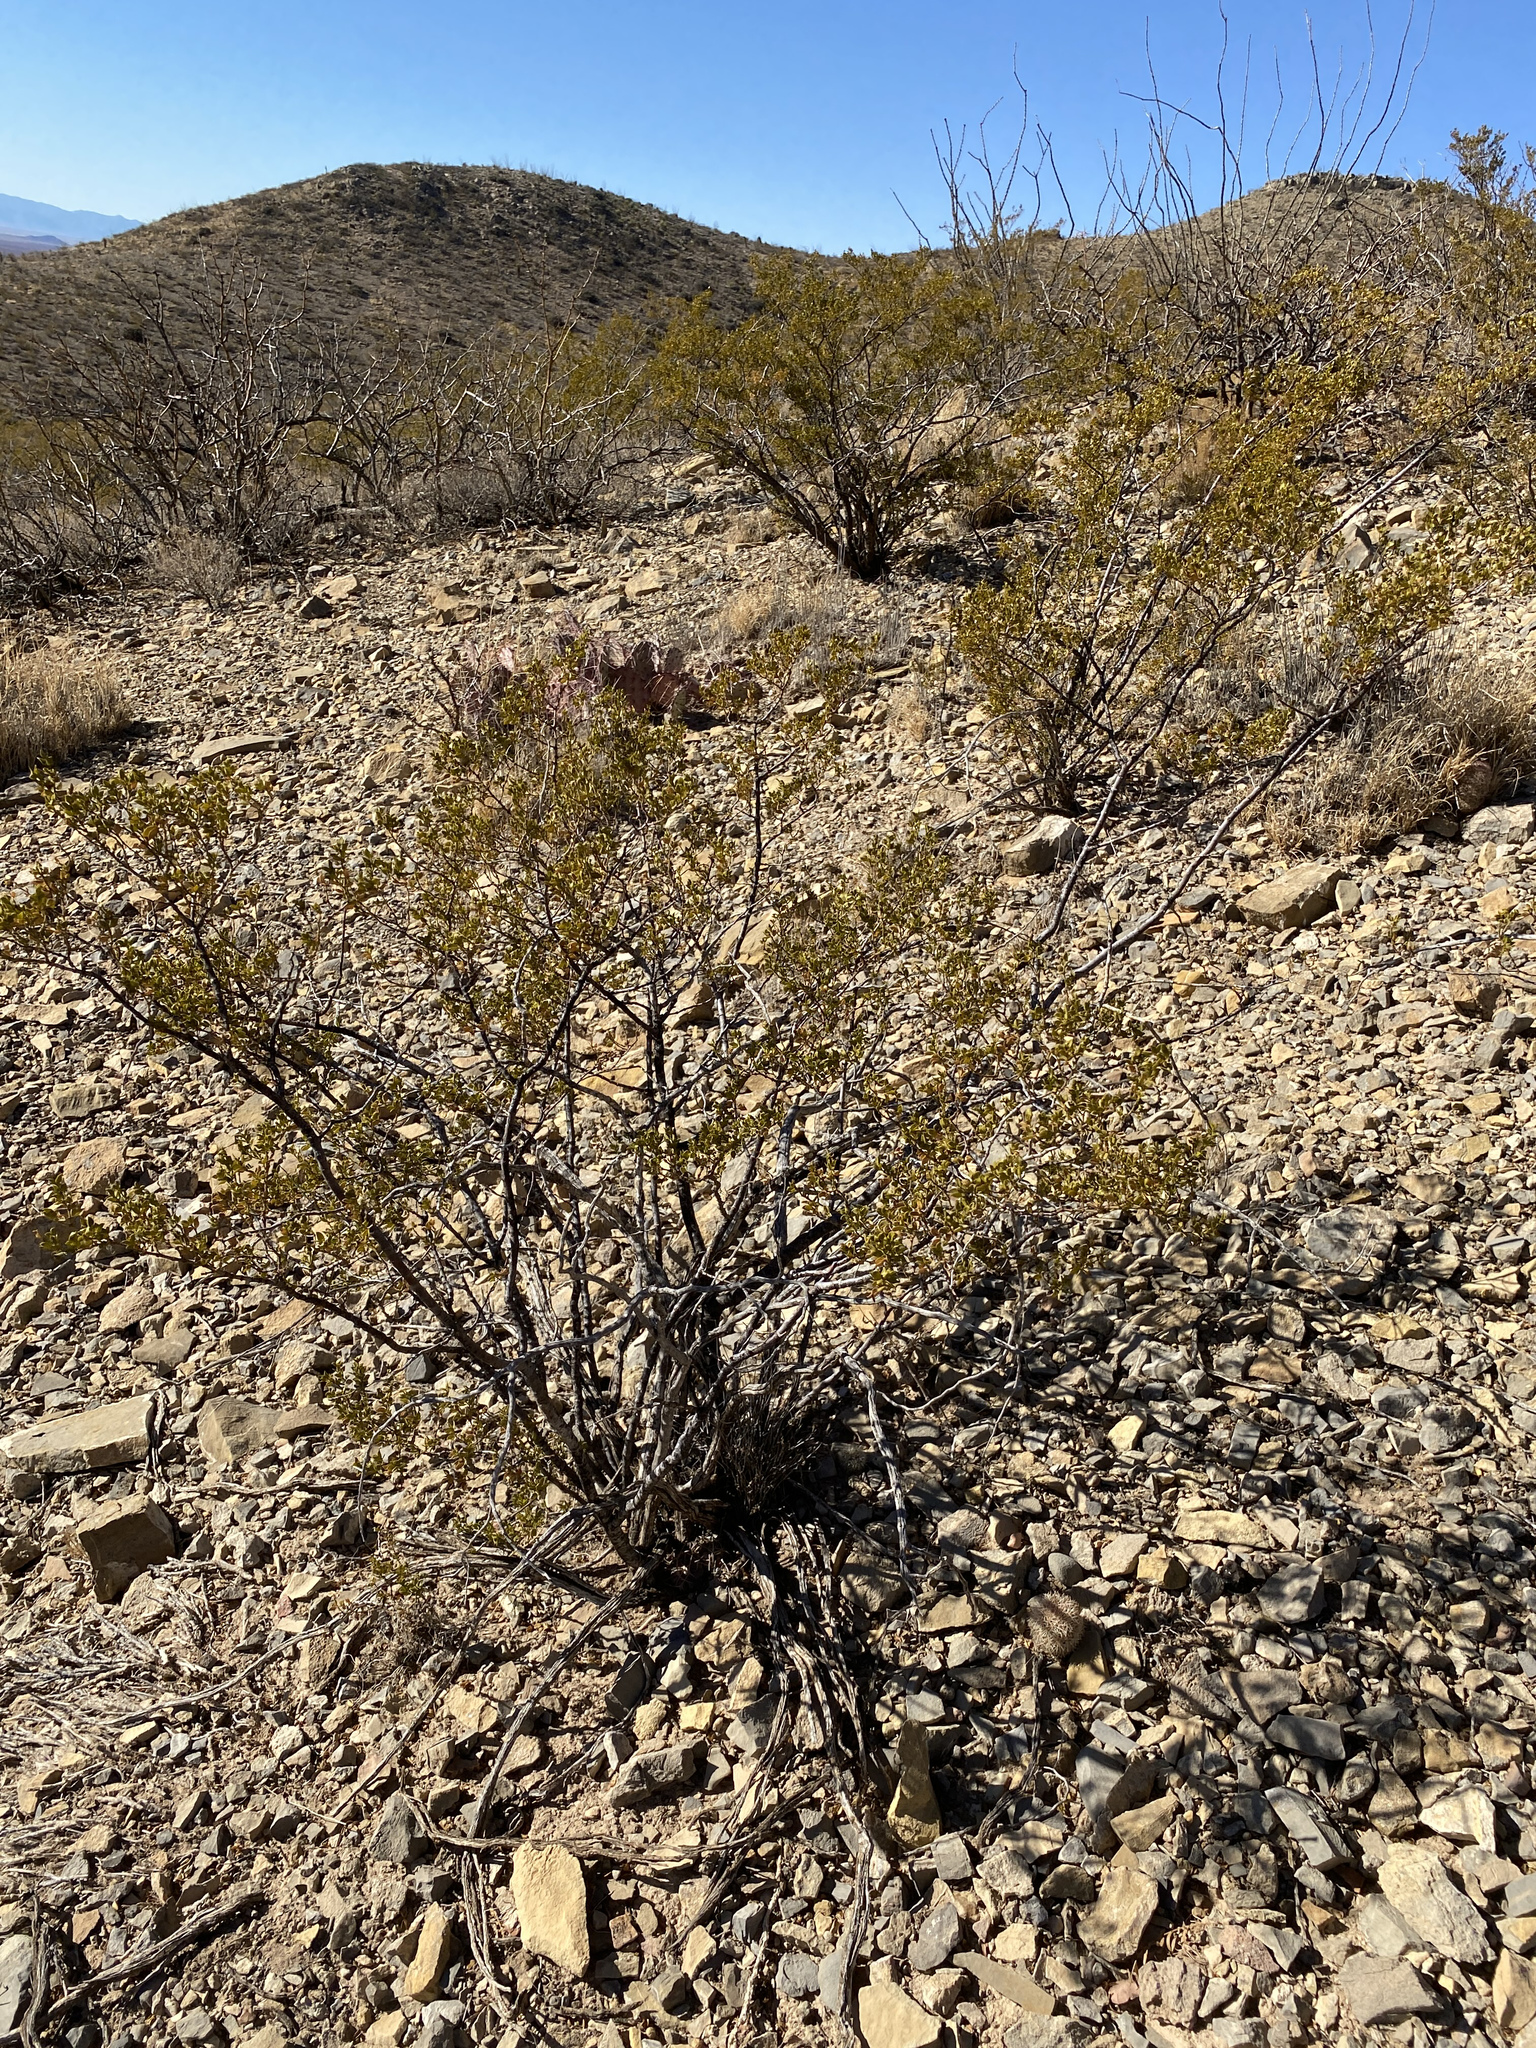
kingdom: Plantae
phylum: Tracheophyta
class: Magnoliopsida
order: Zygophyllales
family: Zygophyllaceae
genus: Larrea
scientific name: Larrea tridentata
